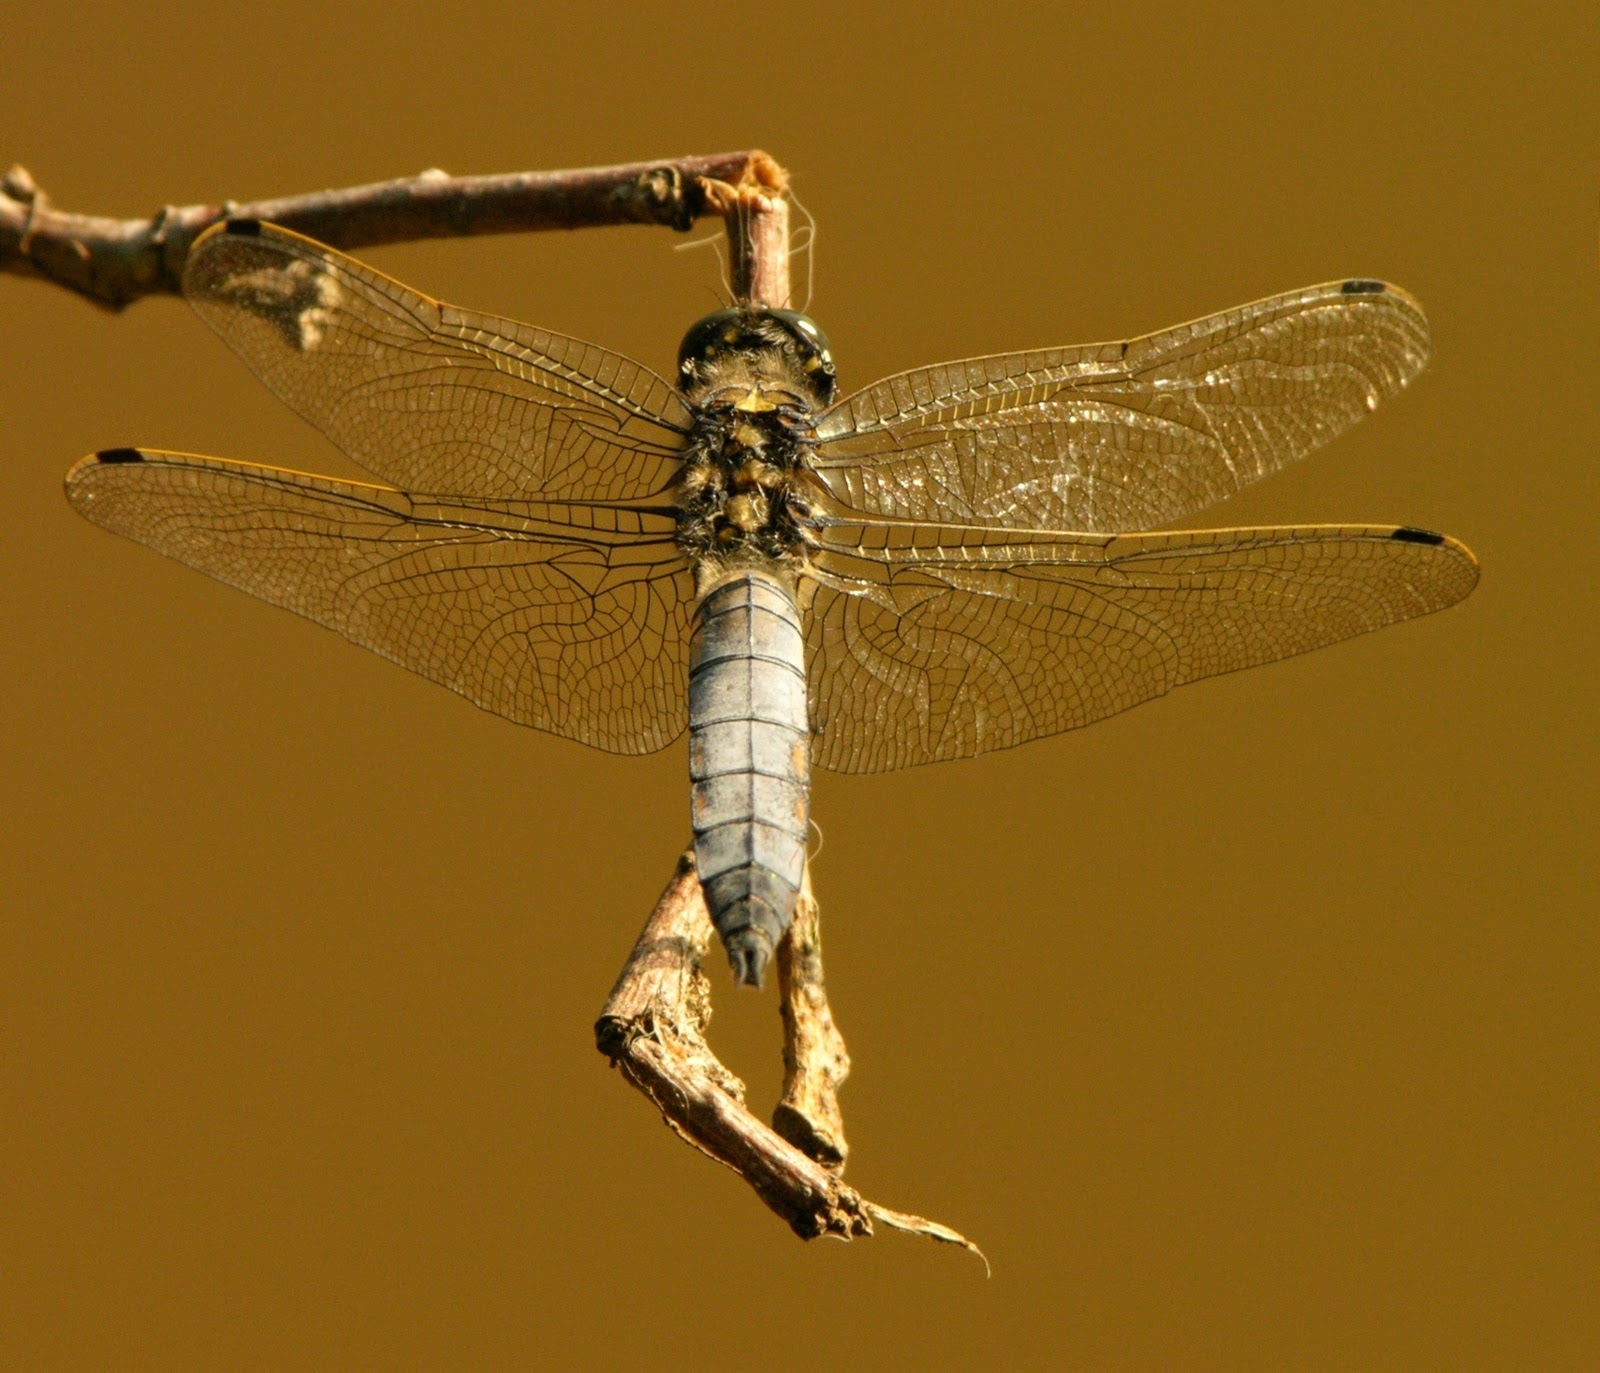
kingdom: Animalia
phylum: Arthropoda
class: Insecta
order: Odonata
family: Libellulidae
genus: Orthetrum
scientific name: Orthetrum cancellatum
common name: Black-tailed skimmer
